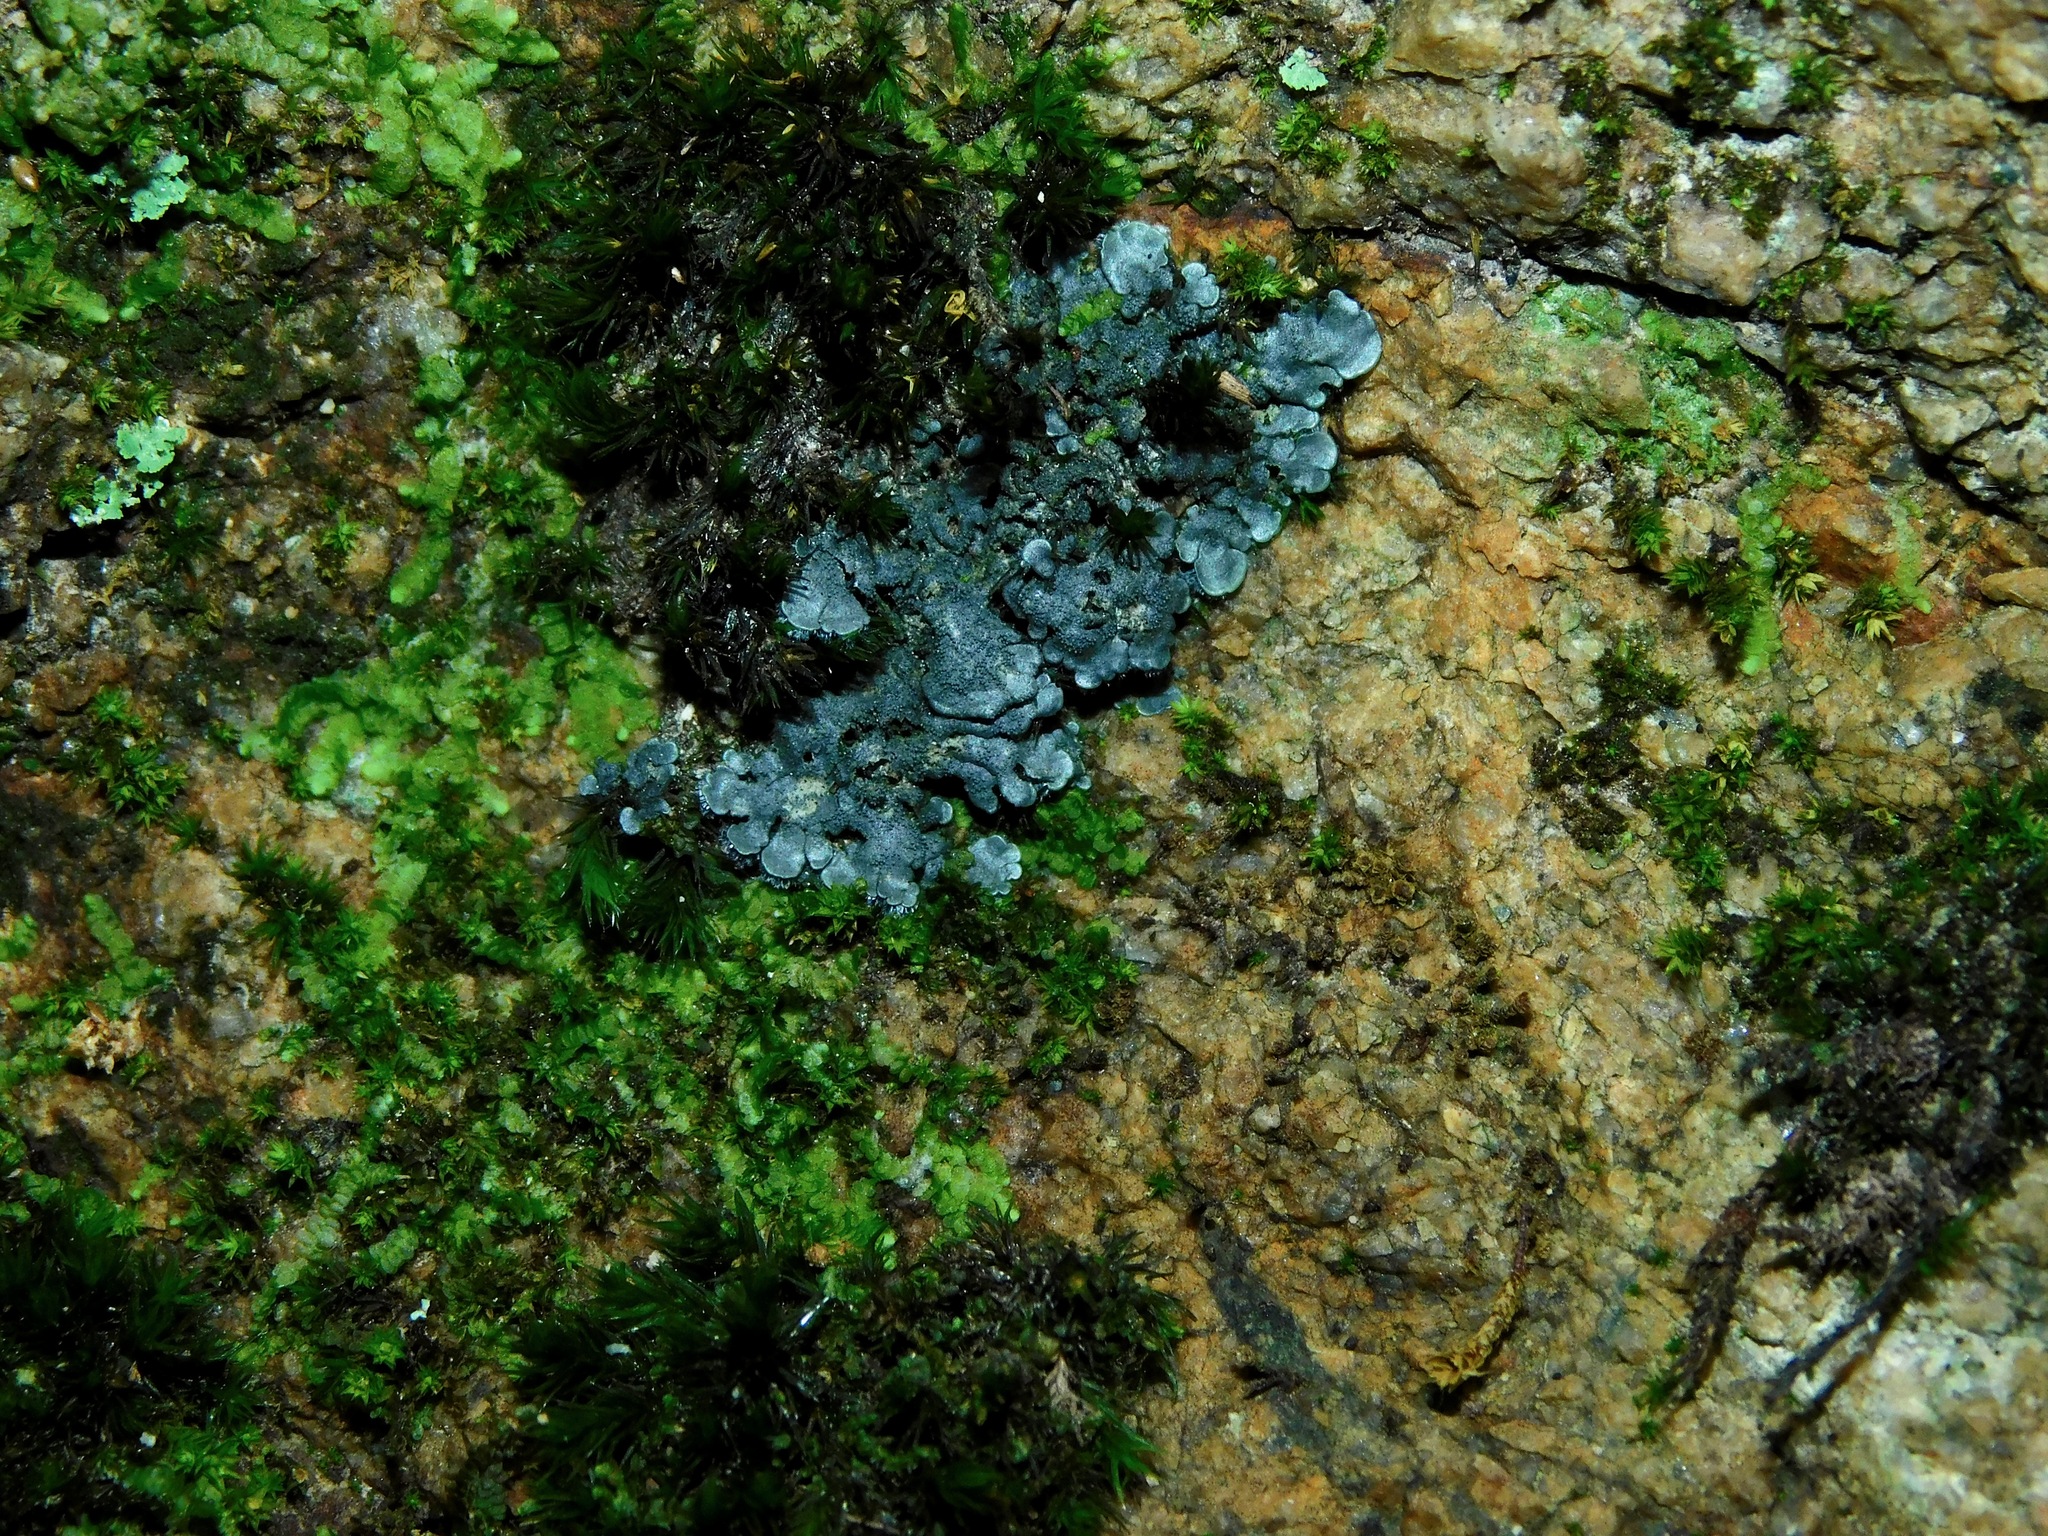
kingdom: Fungi
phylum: Ascomycota
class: Lecanoromycetes
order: Peltigerales
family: Coccocarpiaceae
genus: Coccocarpia
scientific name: Coccocarpia palmicola
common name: Salted shell lichen
